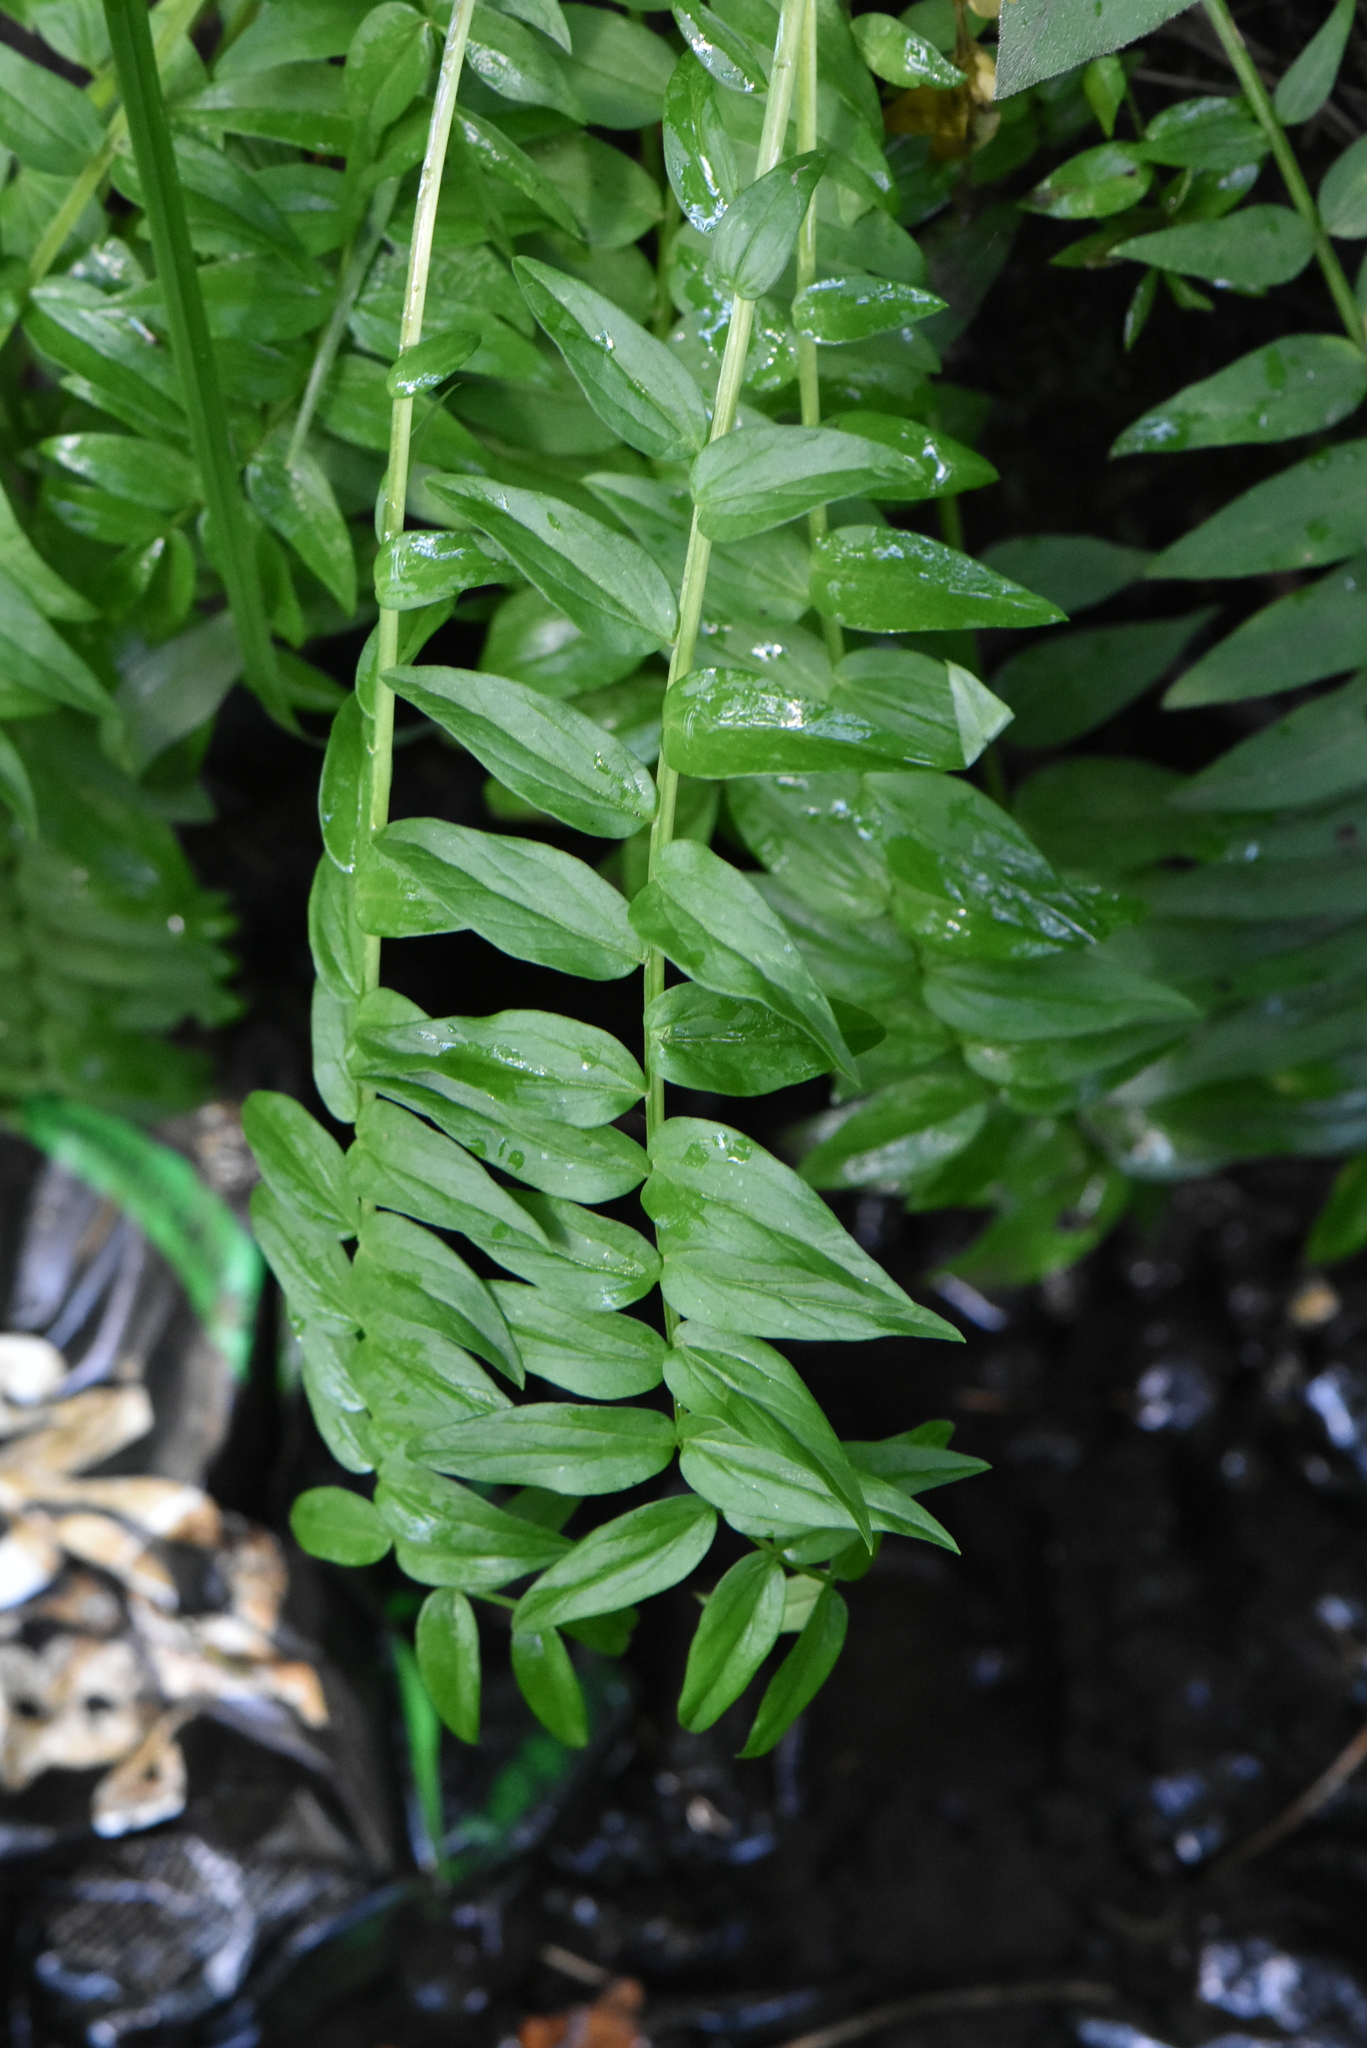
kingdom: Plantae
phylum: Tracheophyta
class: Magnoliopsida
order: Ericales
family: Polemoniaceae
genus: Polemonium
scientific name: Polemonium caeruleum
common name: Jacob's-ladder
